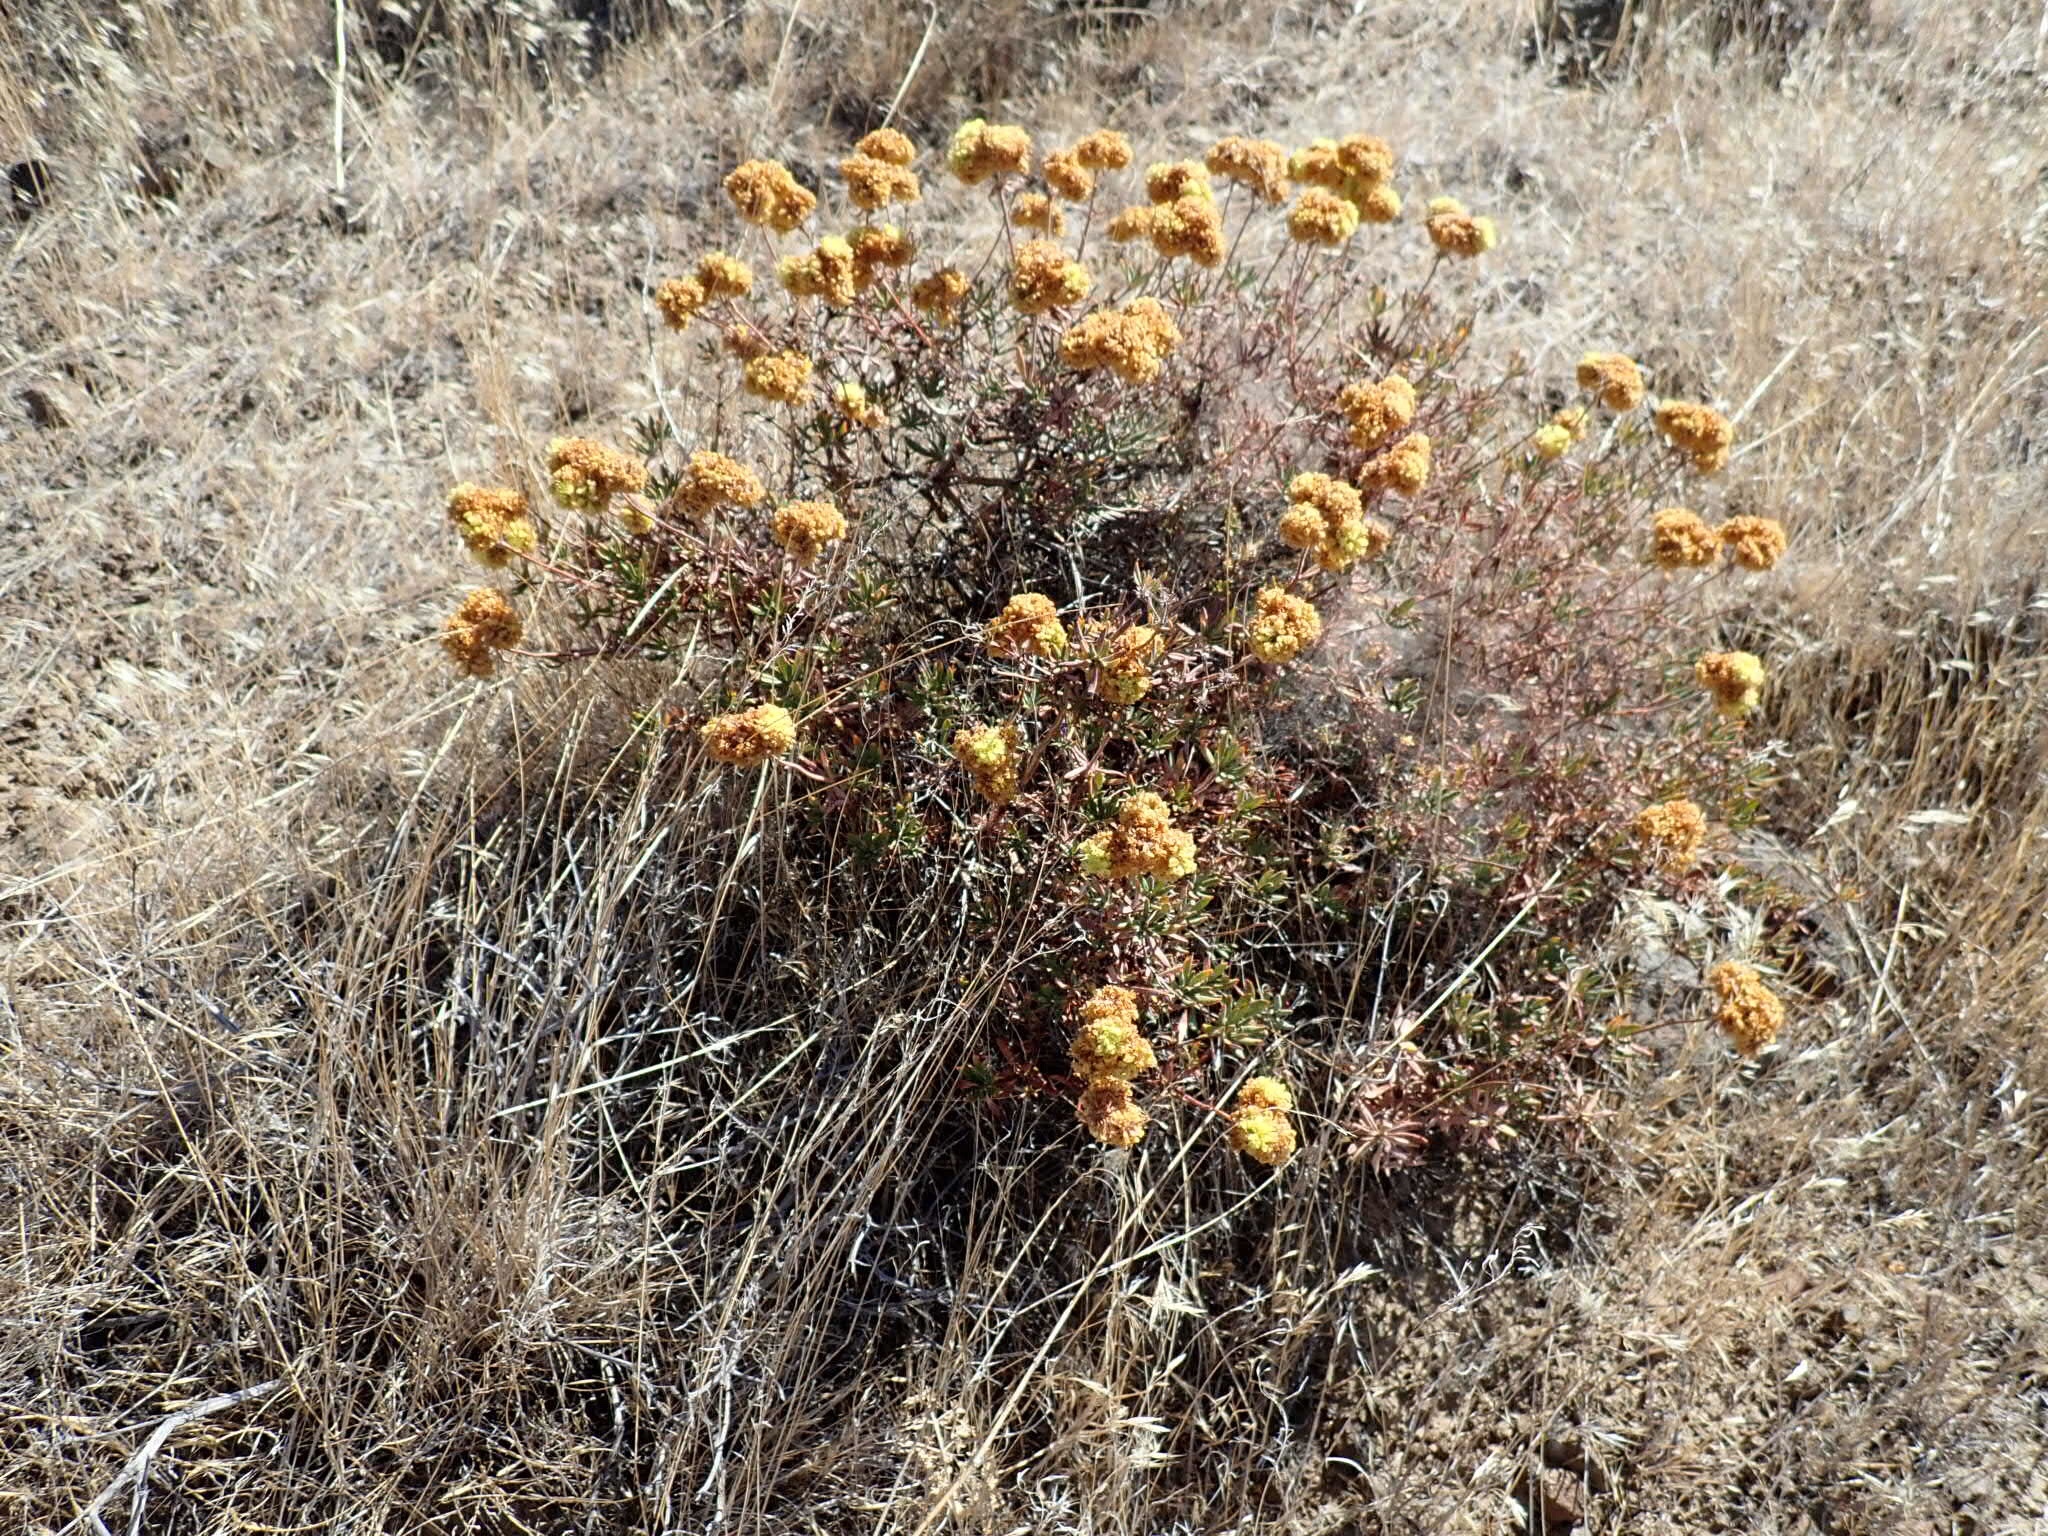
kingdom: Plantae
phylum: Tracheophyta
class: Magnoliopsida
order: Caryophyllales
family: Polygonaceae
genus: Eriogonum
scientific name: Eriogonum douglasii
